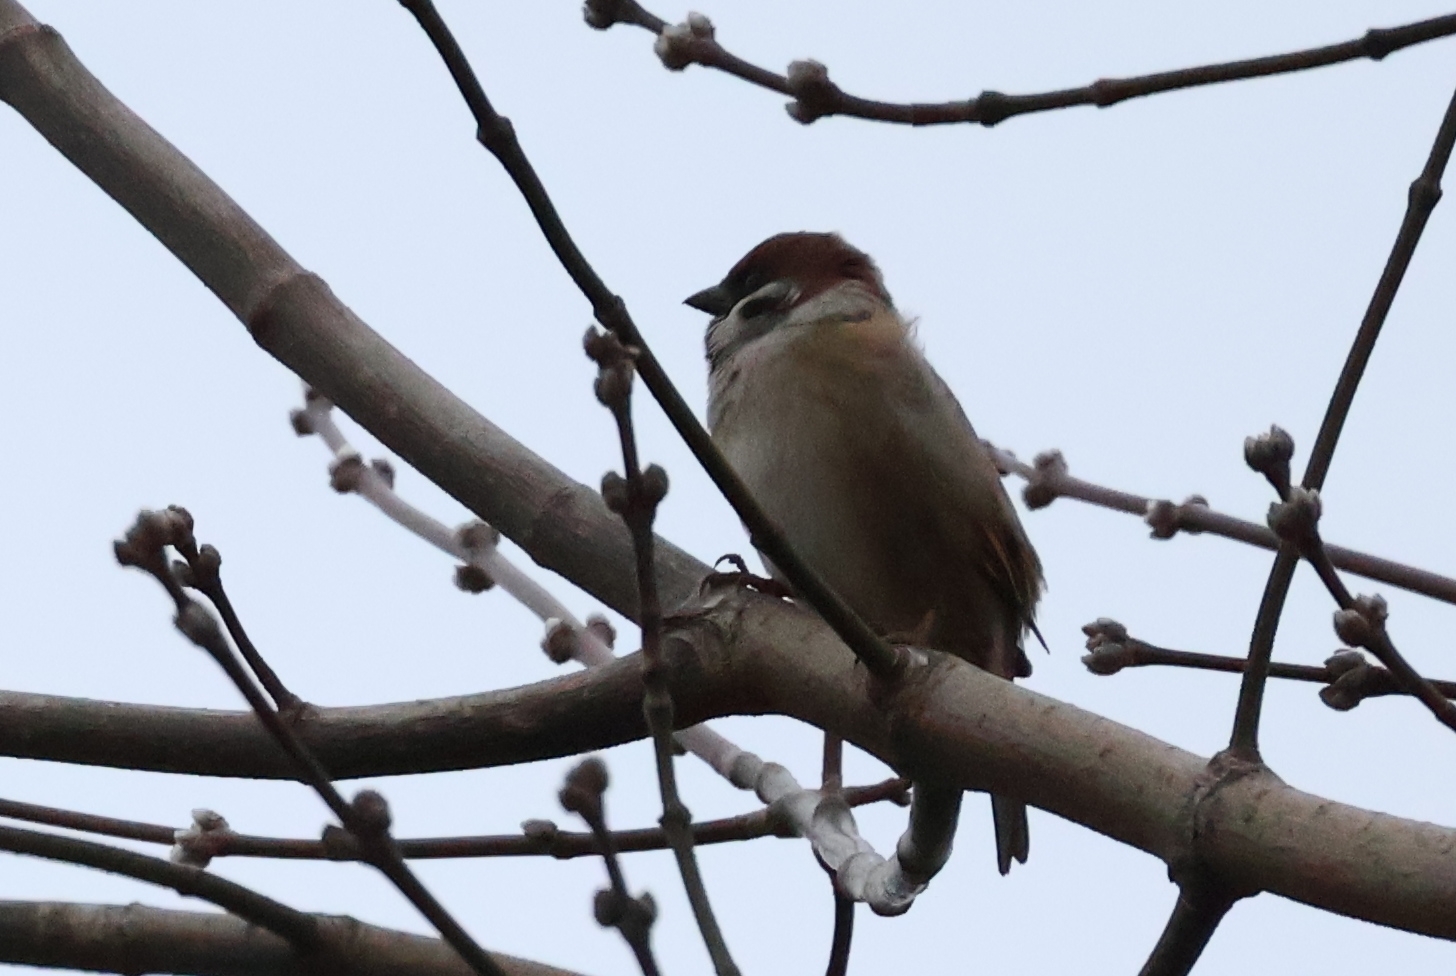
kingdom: Animalia
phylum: Chordata
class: Aves
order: Passeriformes
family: Passeridae
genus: Passer
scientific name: Passer montanus
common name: Eurasian tree sparrow
